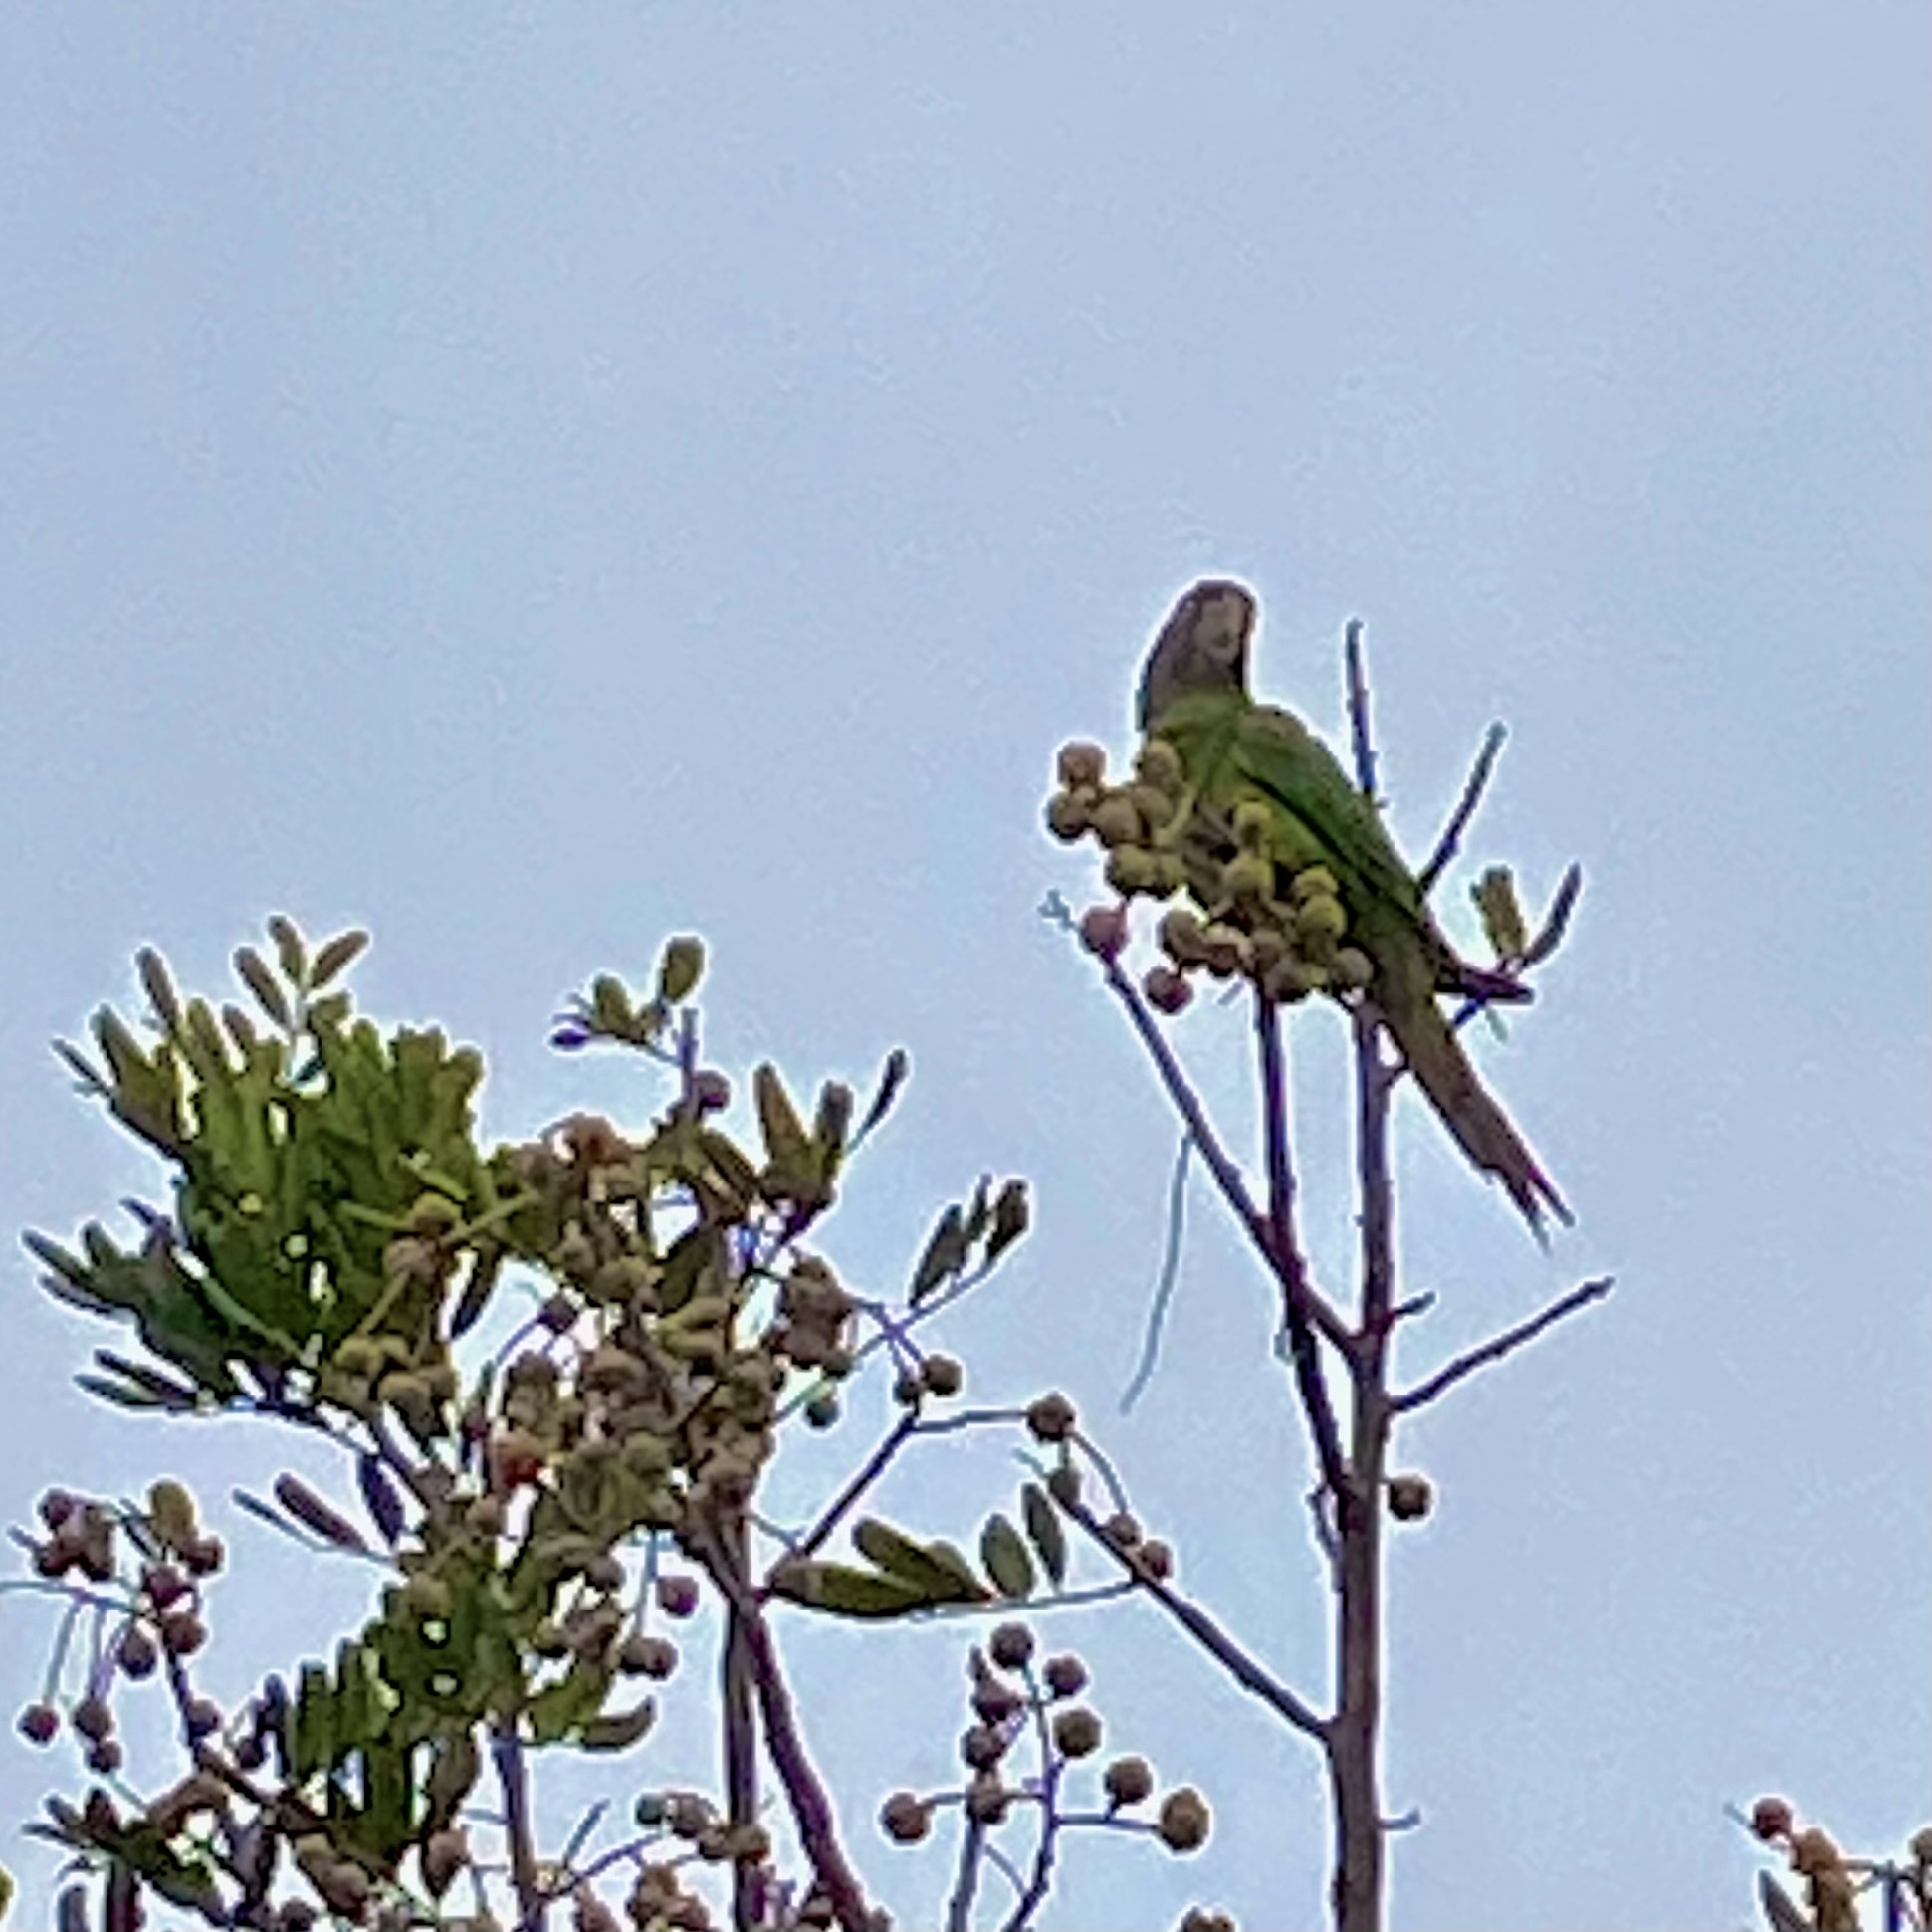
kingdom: Animalia
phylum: Chordata
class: Aves
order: Psittaciformes
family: Psittacidae
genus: Aratinga
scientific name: Aratinga mitrata
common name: Mitred parakeet
